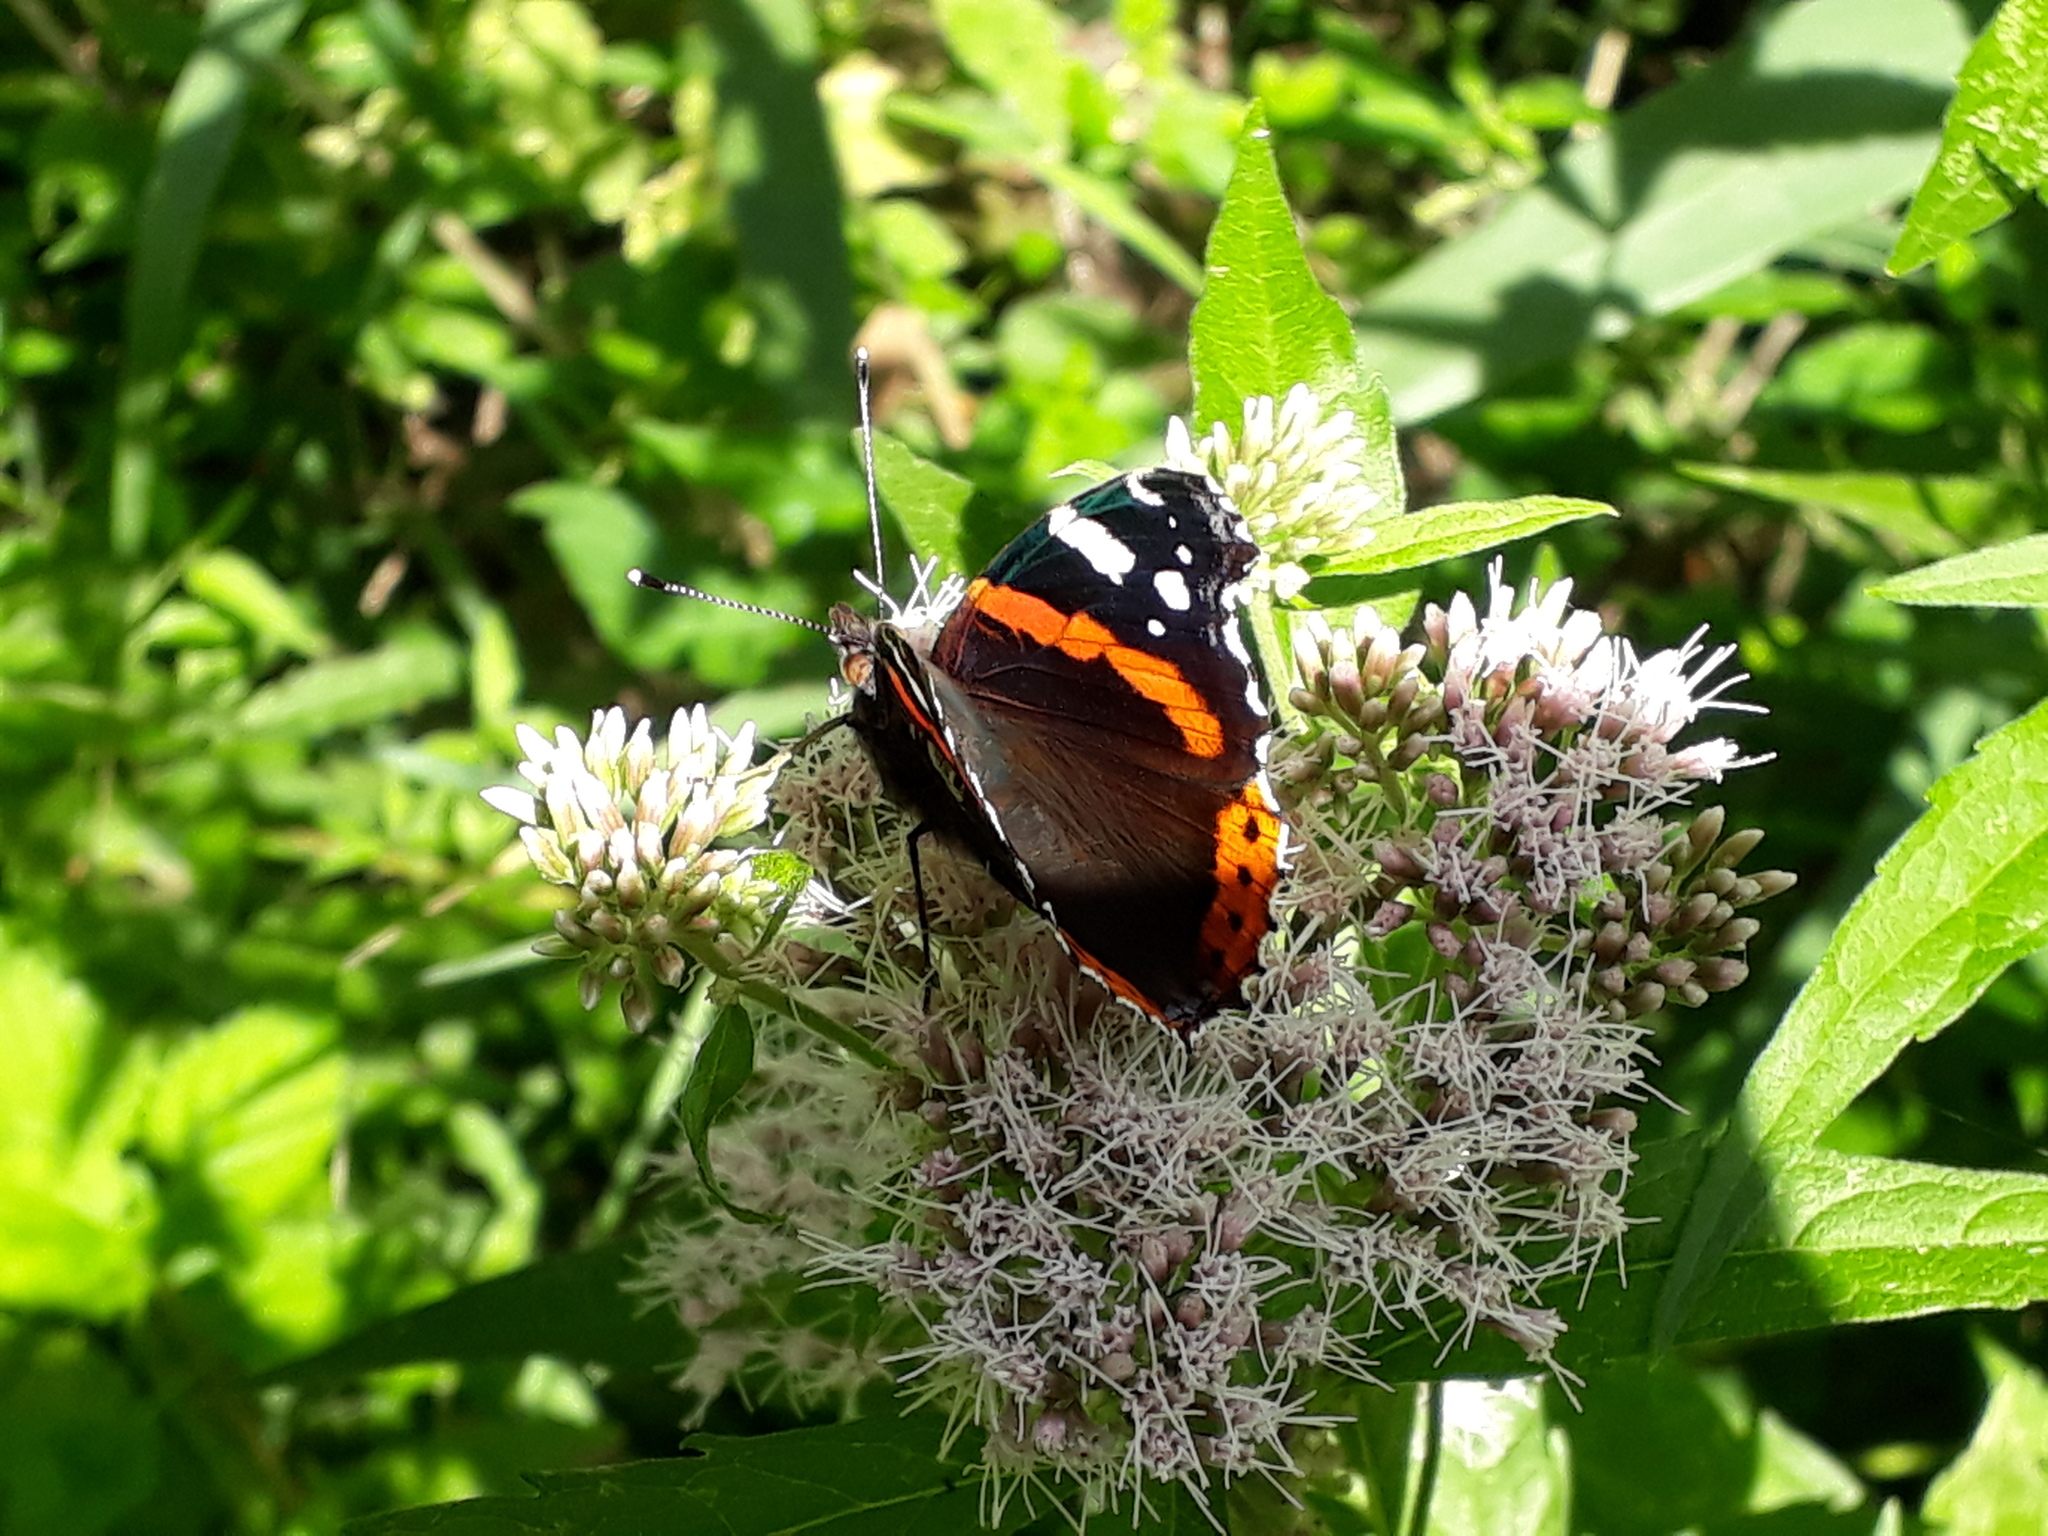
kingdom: Animalia
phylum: Arthropoda
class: Insecta
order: Lepidoptera
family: Nymphalidae
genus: Vanessa
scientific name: Vanessa atalanta
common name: Red admiral
